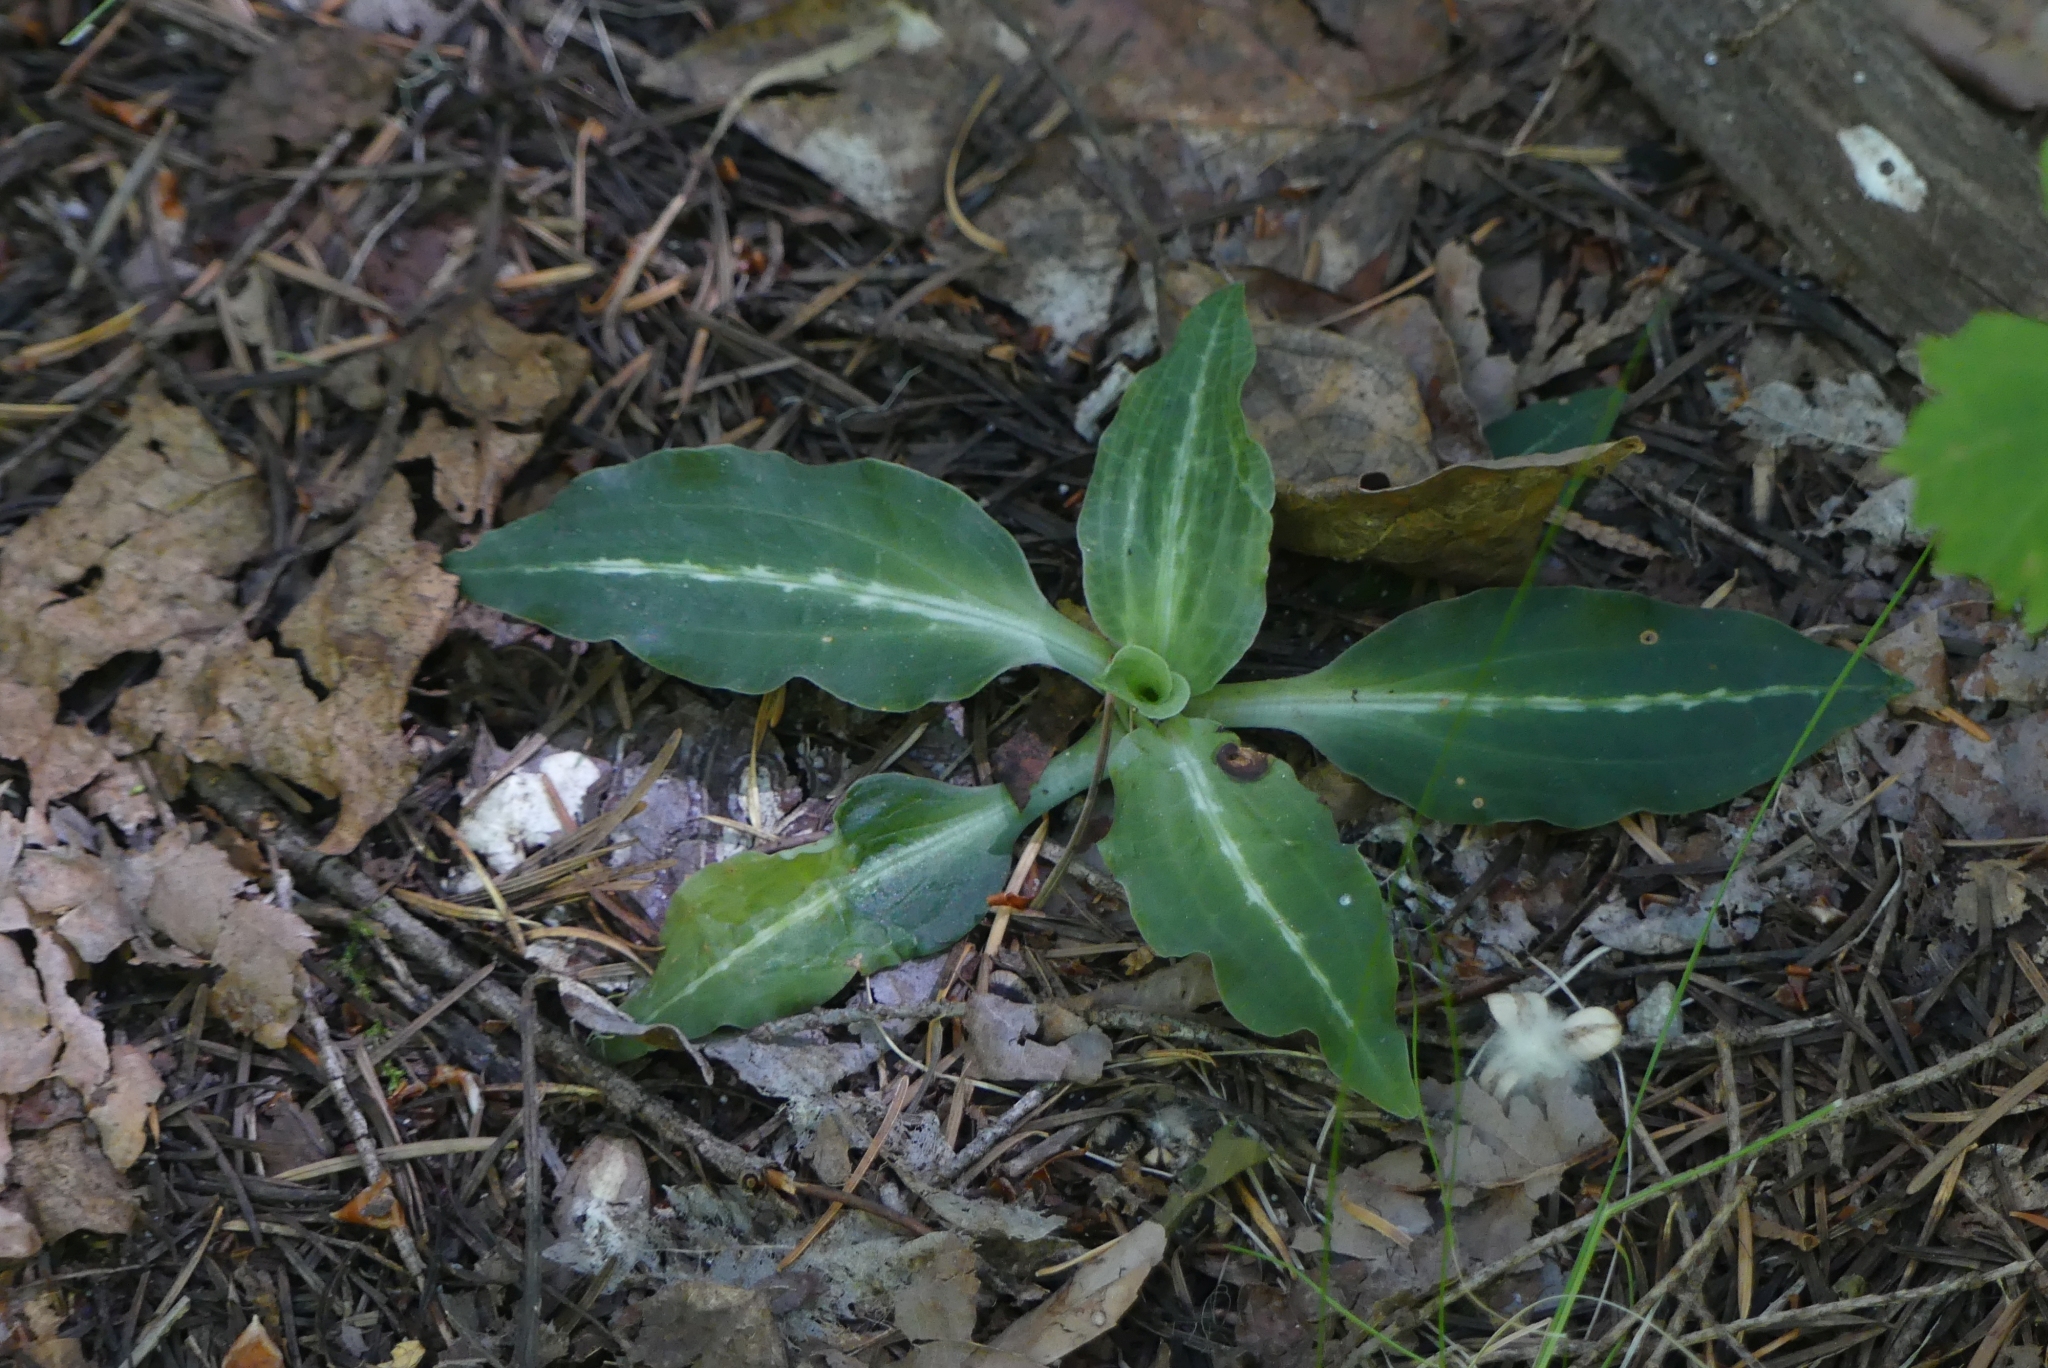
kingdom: Plantae
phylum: Tracheophyta
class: Liliopsida
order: Asparagales
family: Orchidaceae
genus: Goodyera
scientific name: Goodyera oblongifolia
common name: Giant rattlesnake-plantain
